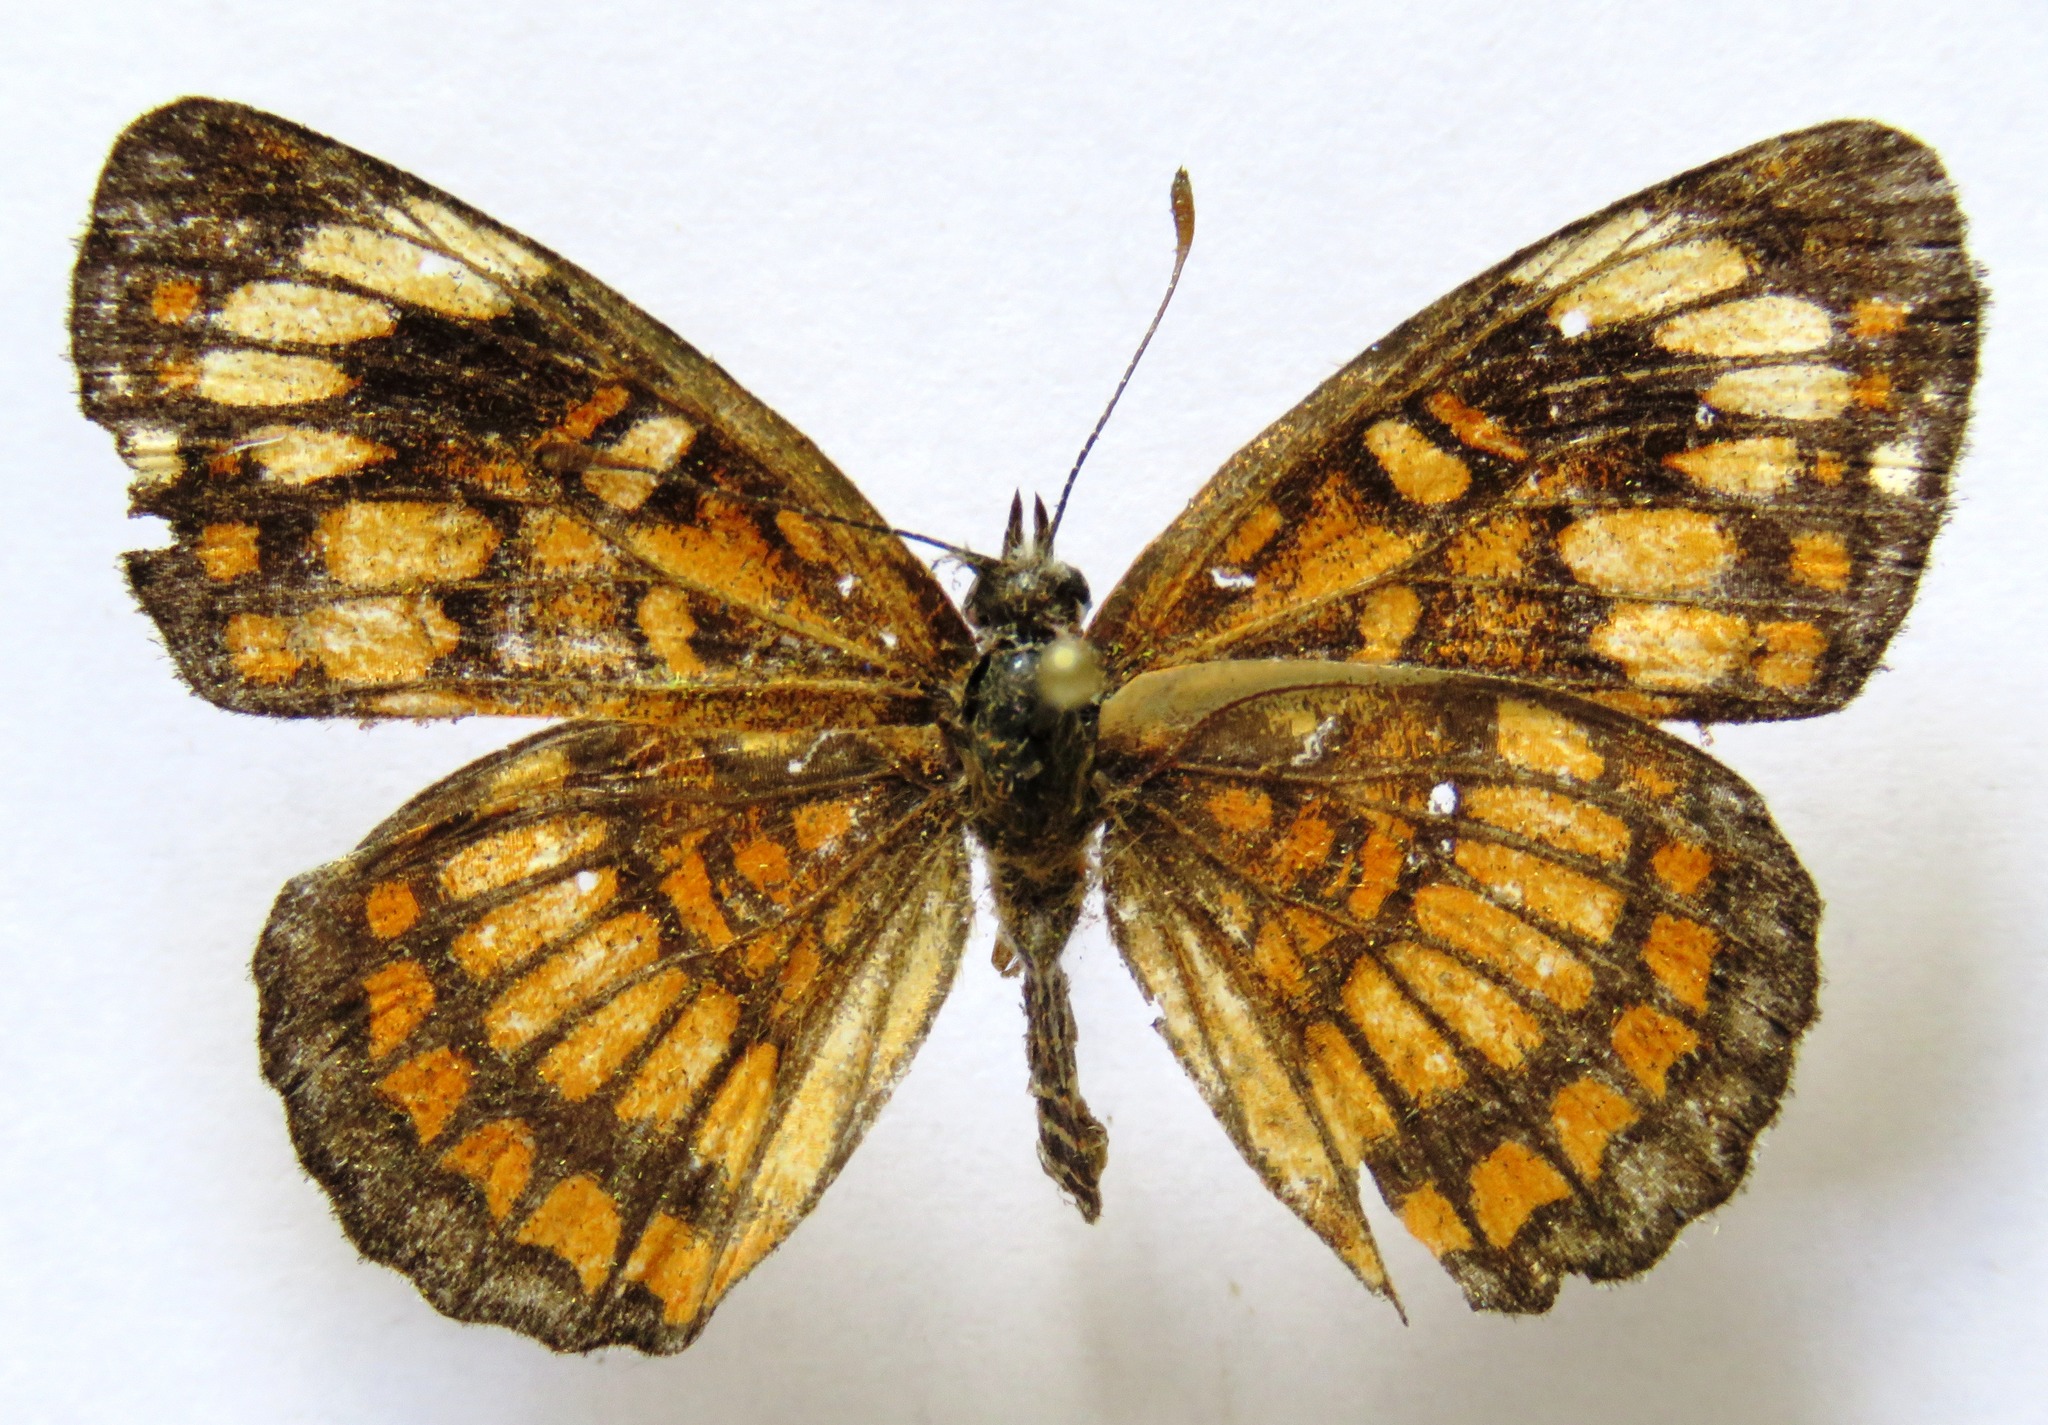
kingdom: Animalia
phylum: Arthropoda
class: Insecta
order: Lepidoptera
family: Nymphalidae
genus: Thessalia
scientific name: Thessalia theona
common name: Nymphalid moth
